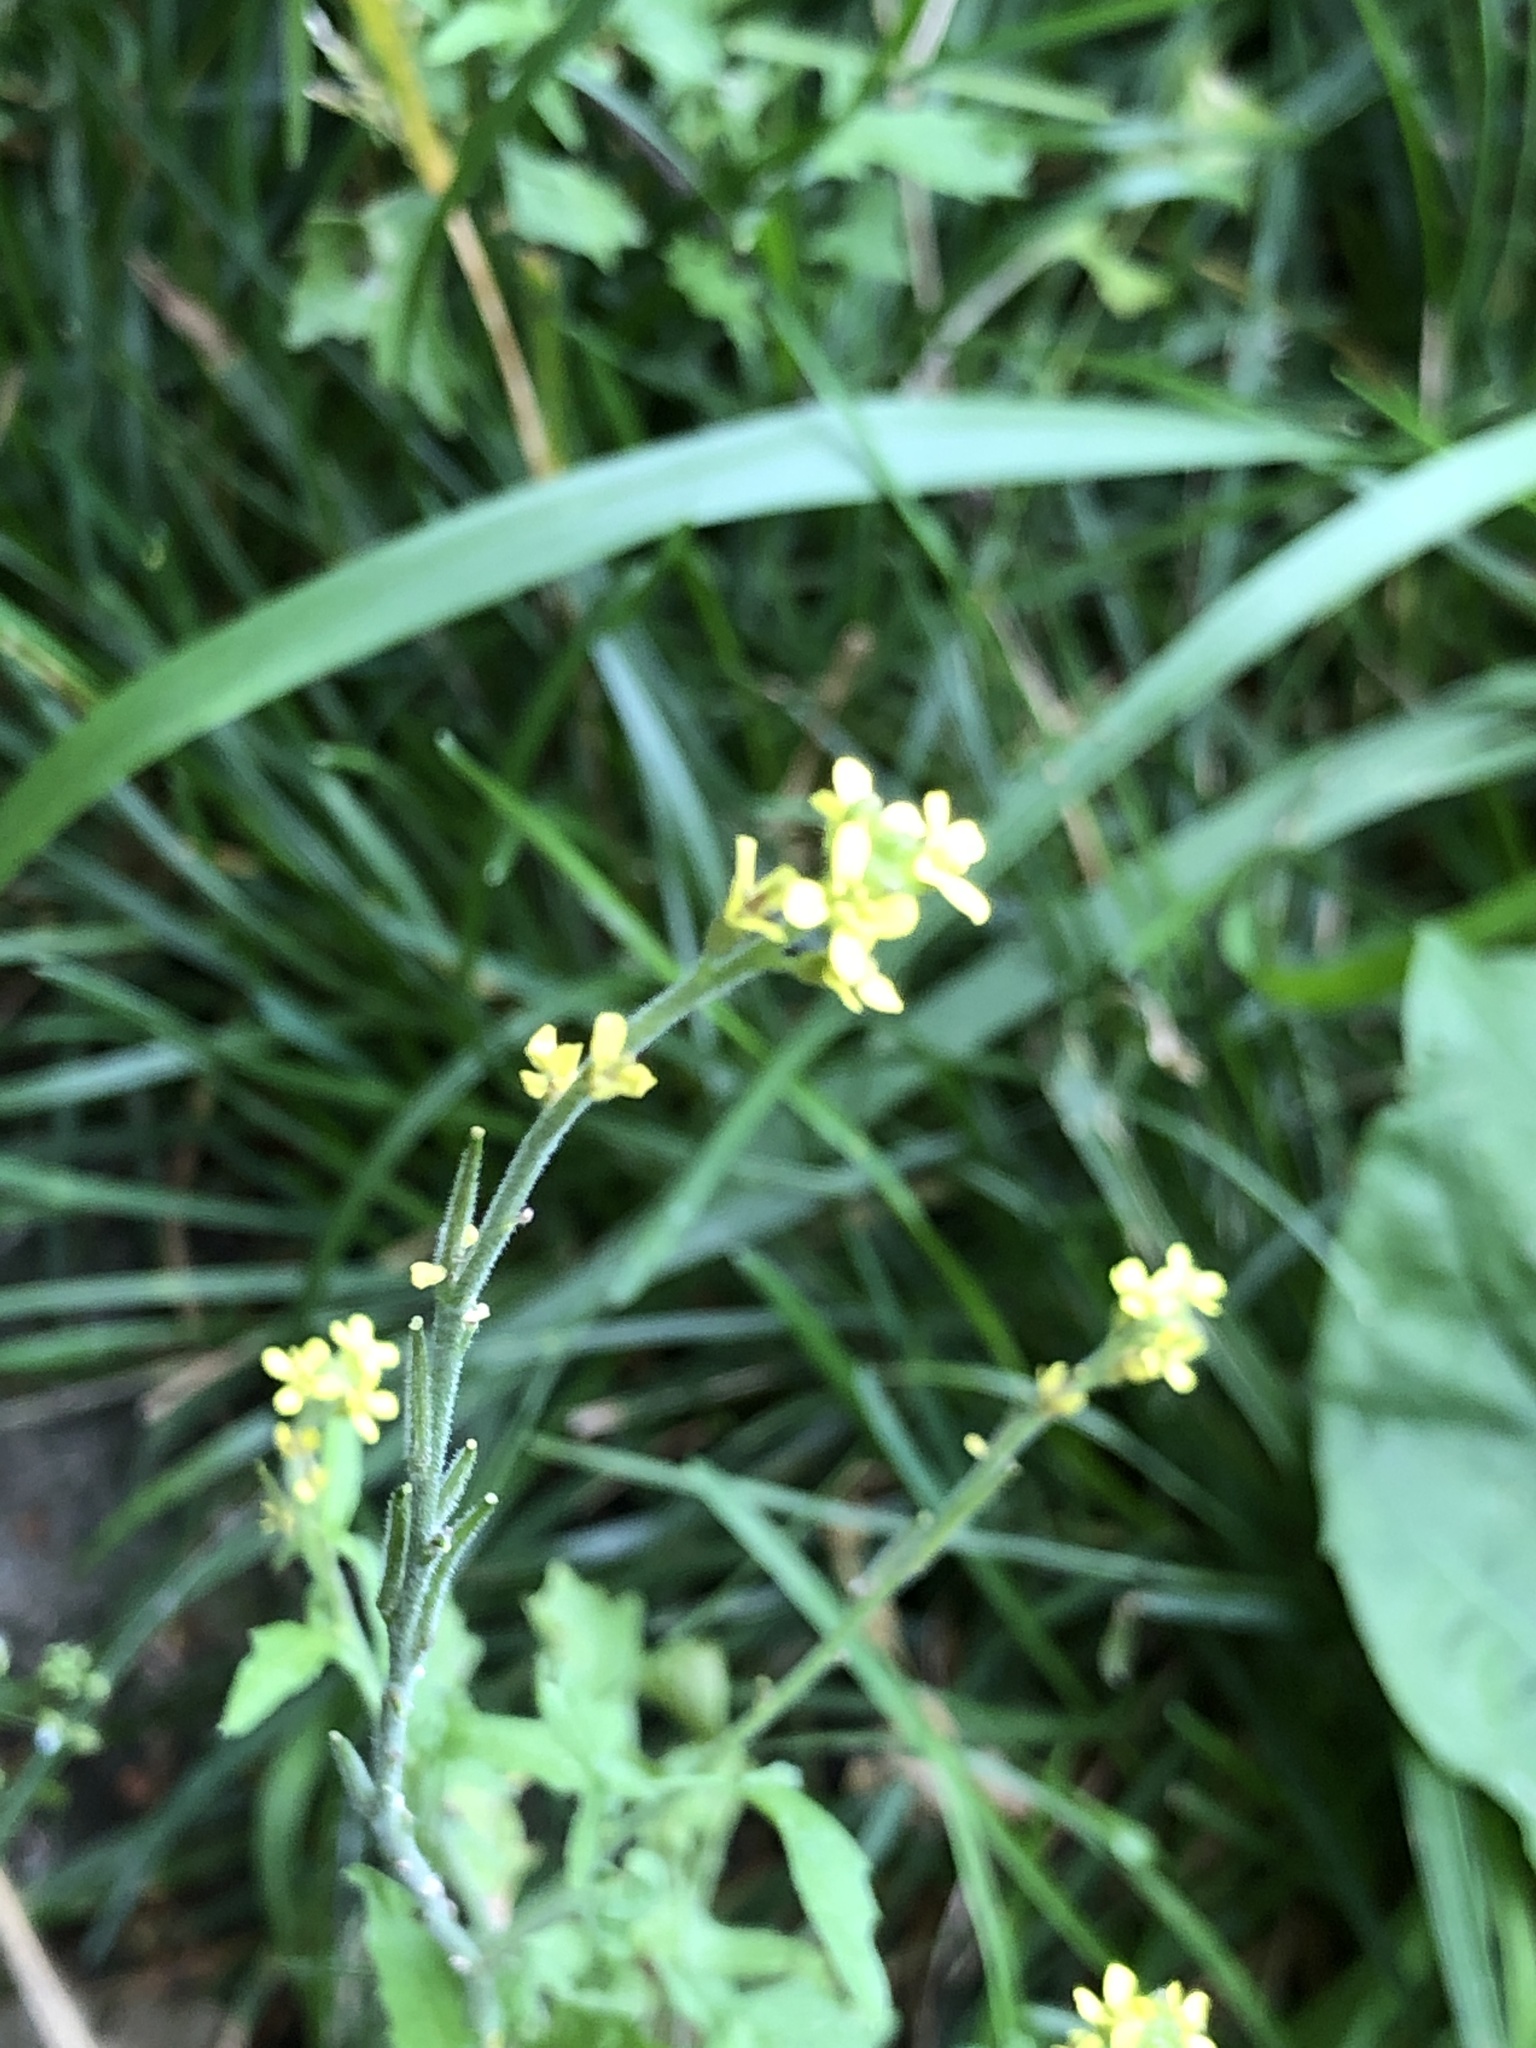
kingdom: Plantae
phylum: Tracheophyta
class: Magnoliopsida
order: Brassicales
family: Brassicaceae
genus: Sisymbrium
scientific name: Sisymbrium officinale
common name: Hedge mustard
